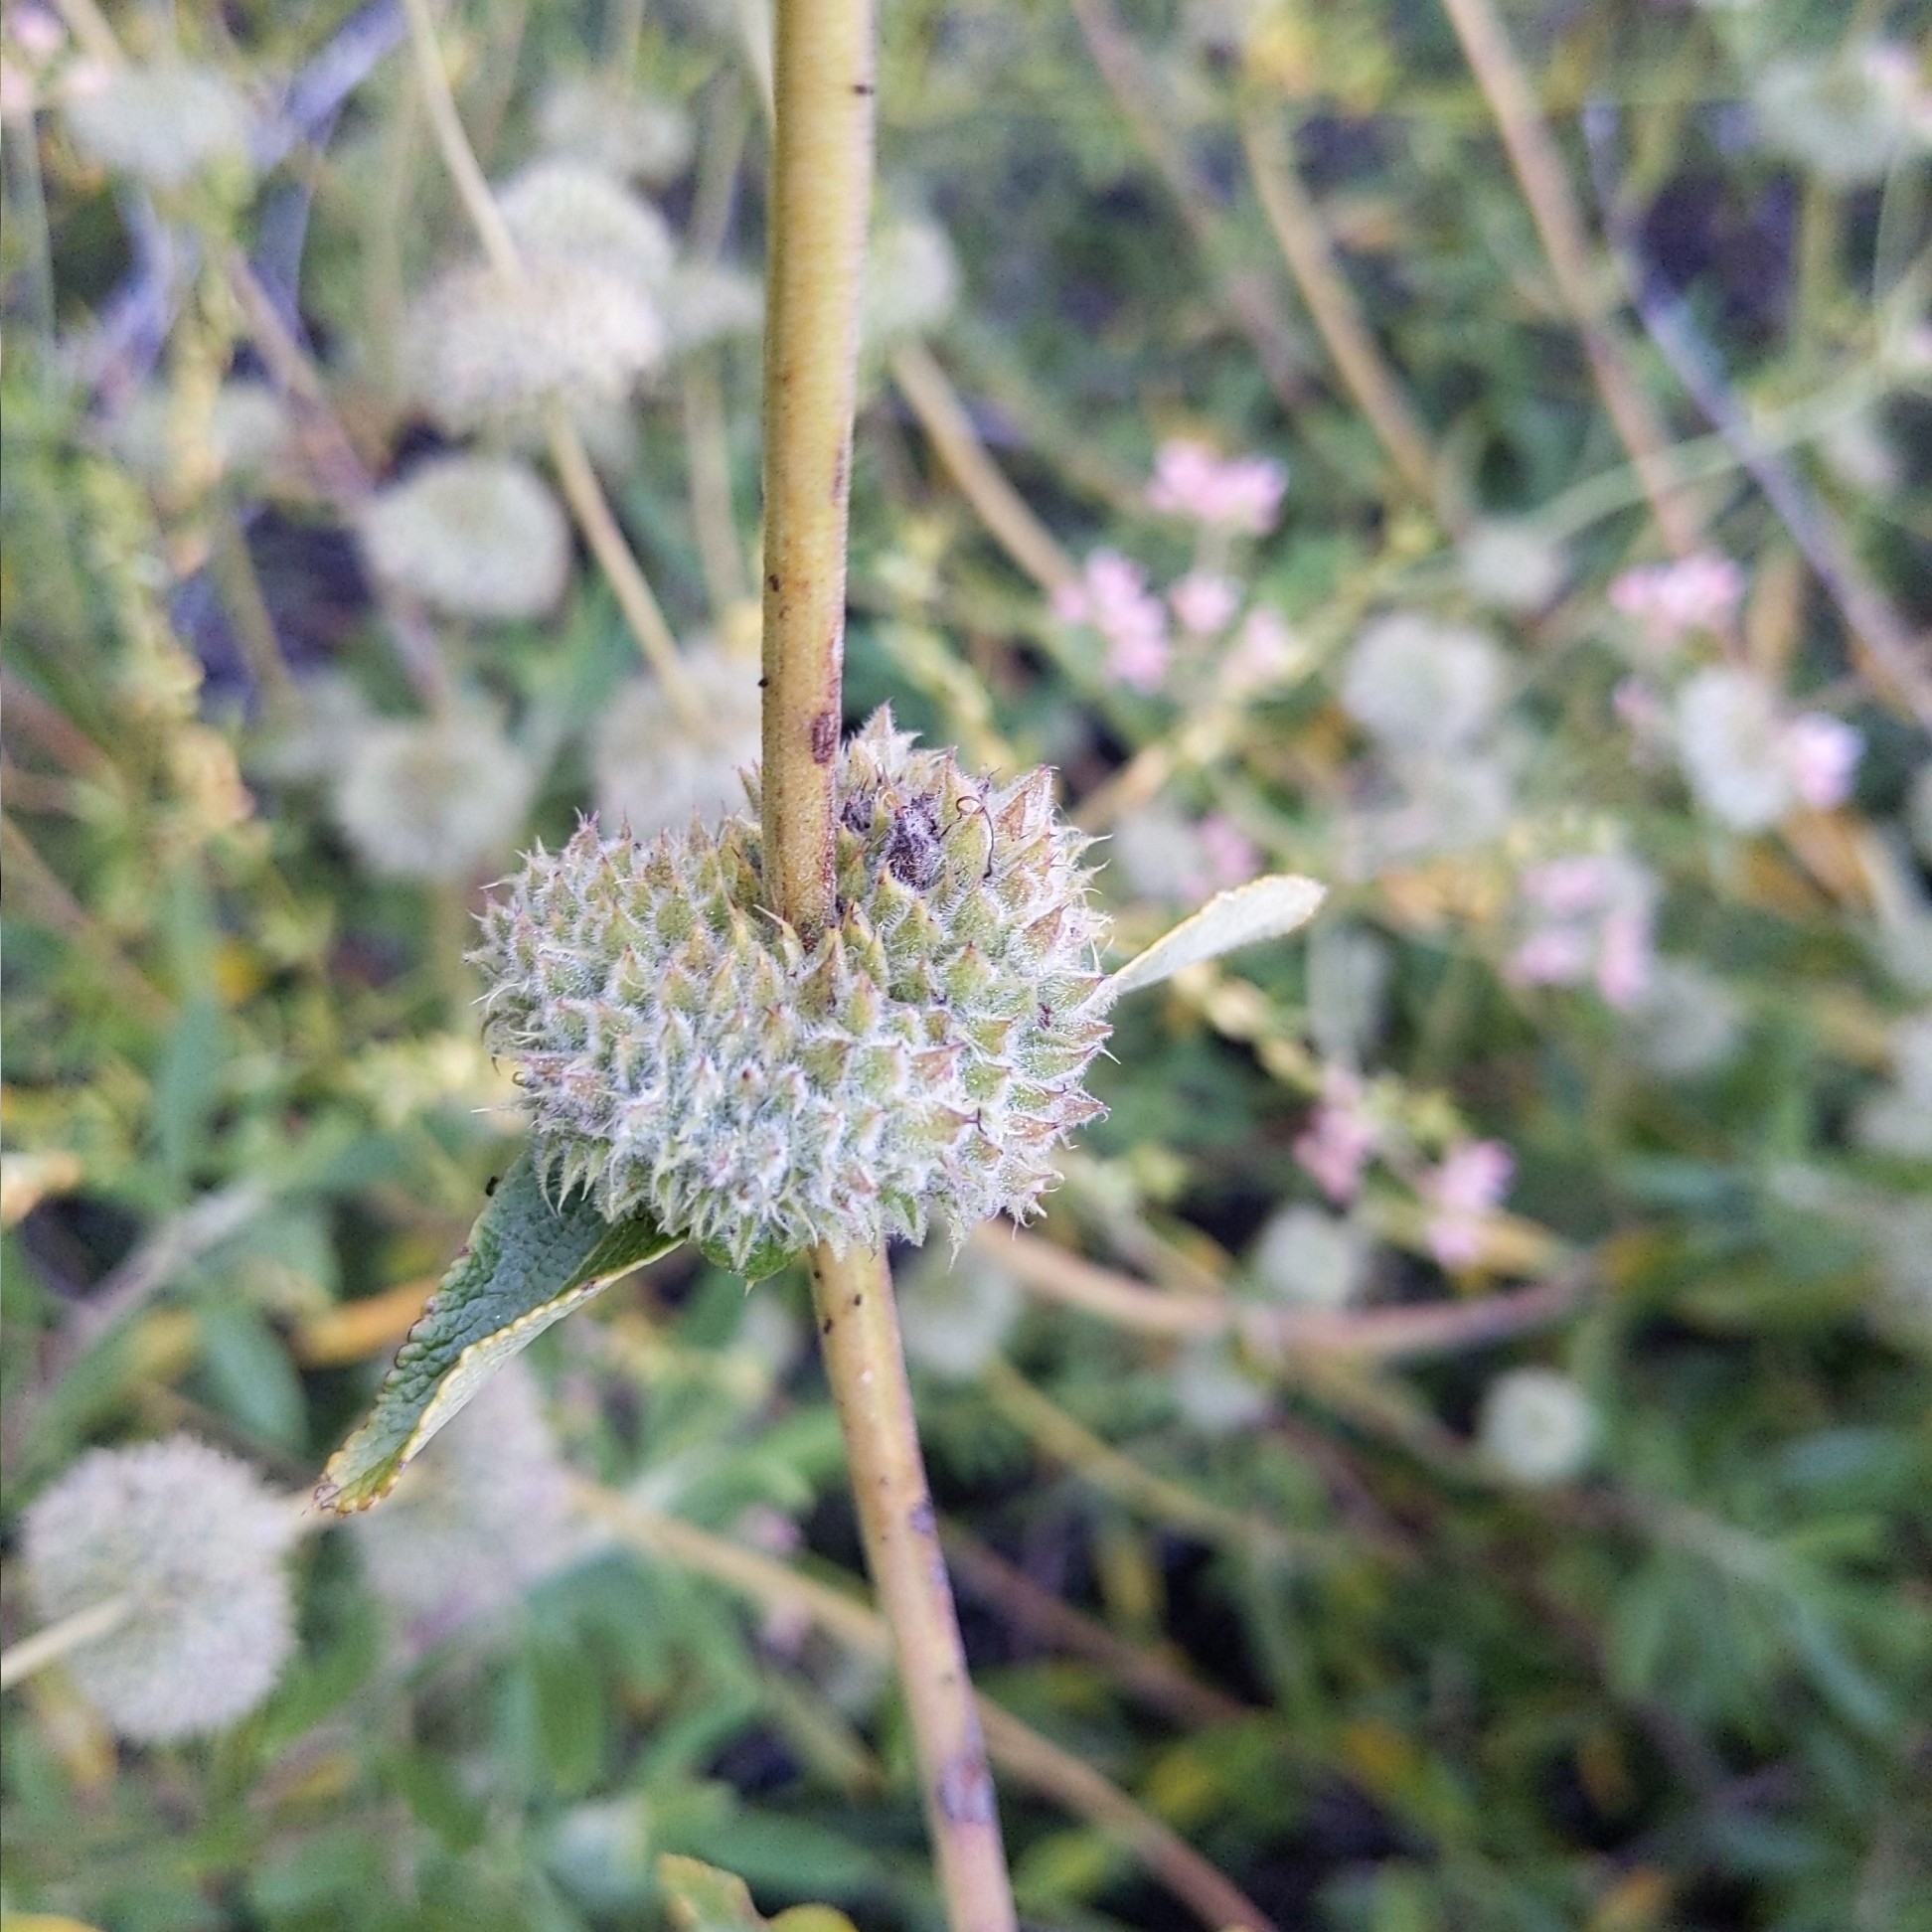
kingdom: Plantae
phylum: Tracheophyta
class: Magnoliopsida
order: Lamiales
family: Lamiaceae
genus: Salvia
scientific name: Salvia mellifera
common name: Black sage
